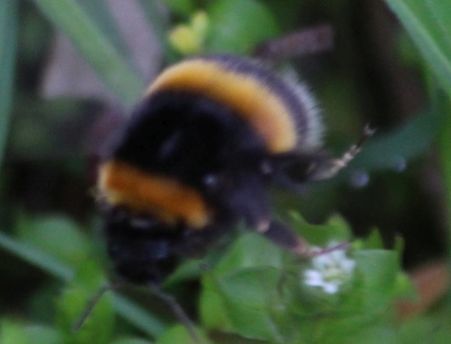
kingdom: Animalia
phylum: Arthropoda
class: Insecta
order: Hymenoptera
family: Apidae
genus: Bombus
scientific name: Bombus
